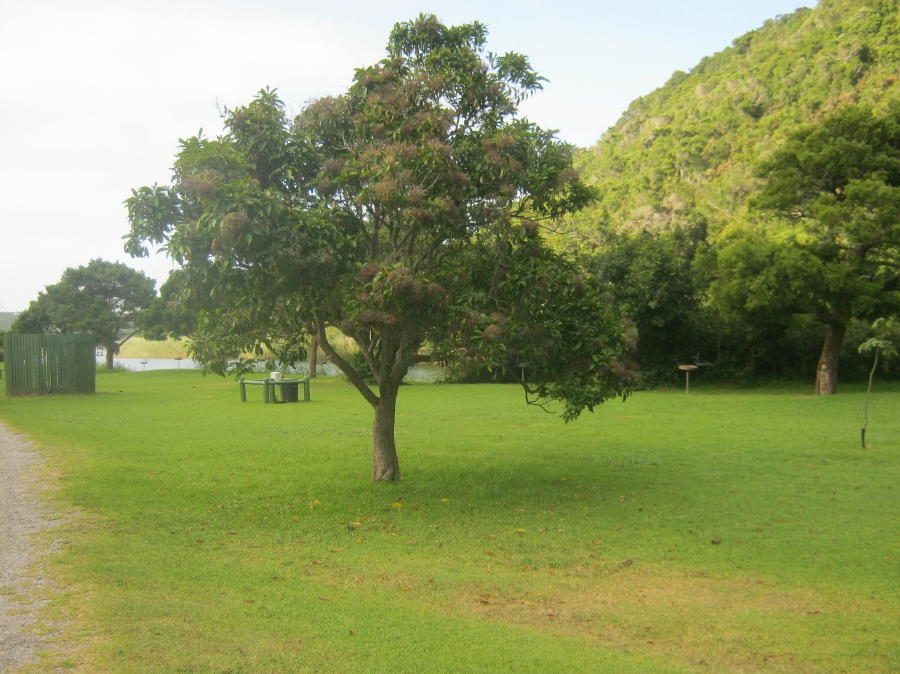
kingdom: Plantae
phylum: Tracheophyta
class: Magnoliopsida
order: Lamiales
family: Stilbaceae
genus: Nuxia
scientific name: Nuxia floribunda
